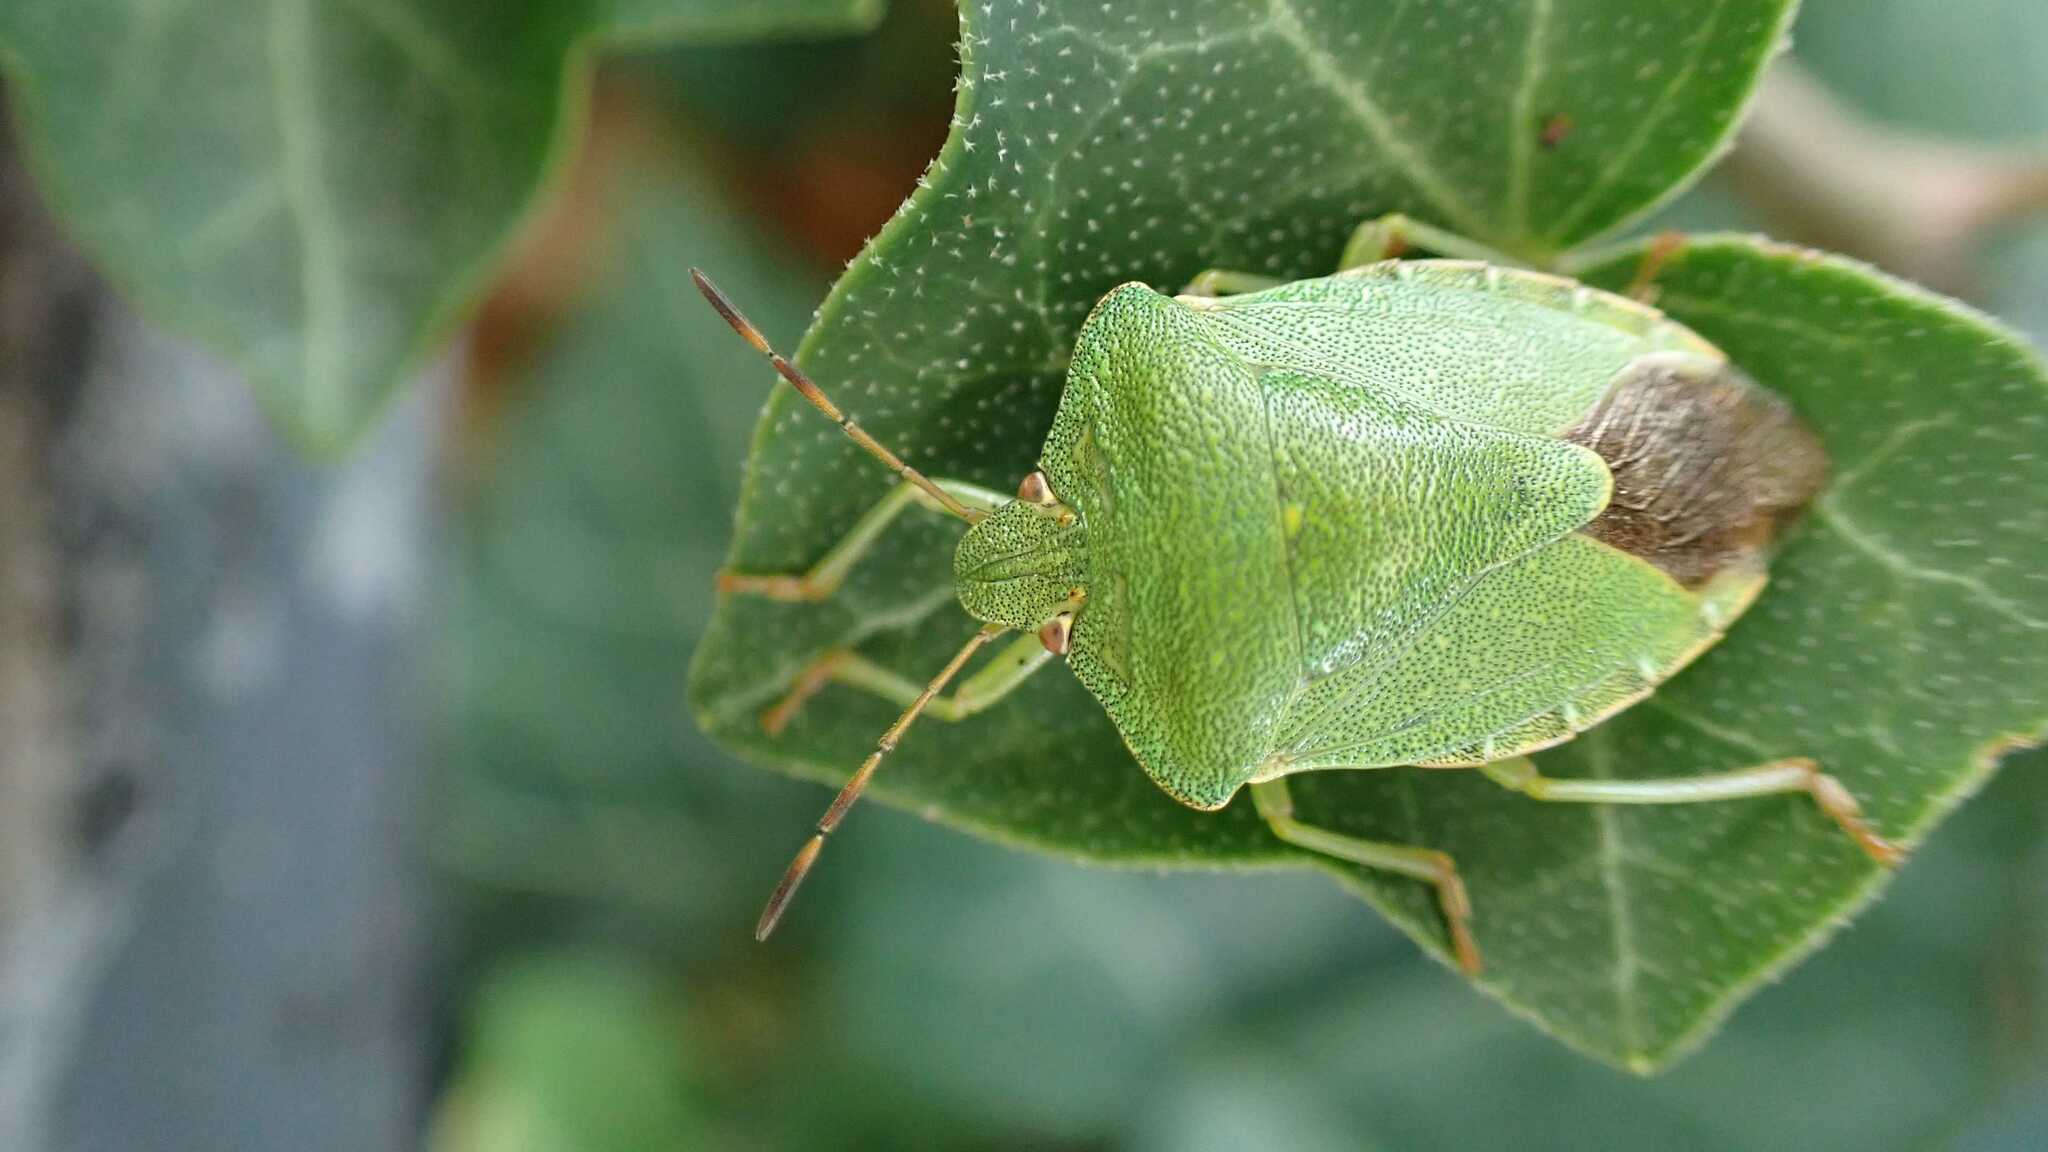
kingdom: Animalia
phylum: Arthropoda
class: Insecta
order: Hemiptera
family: Pentatomidae
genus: Palomena
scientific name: Palomena prasina
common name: Green shieldbug
